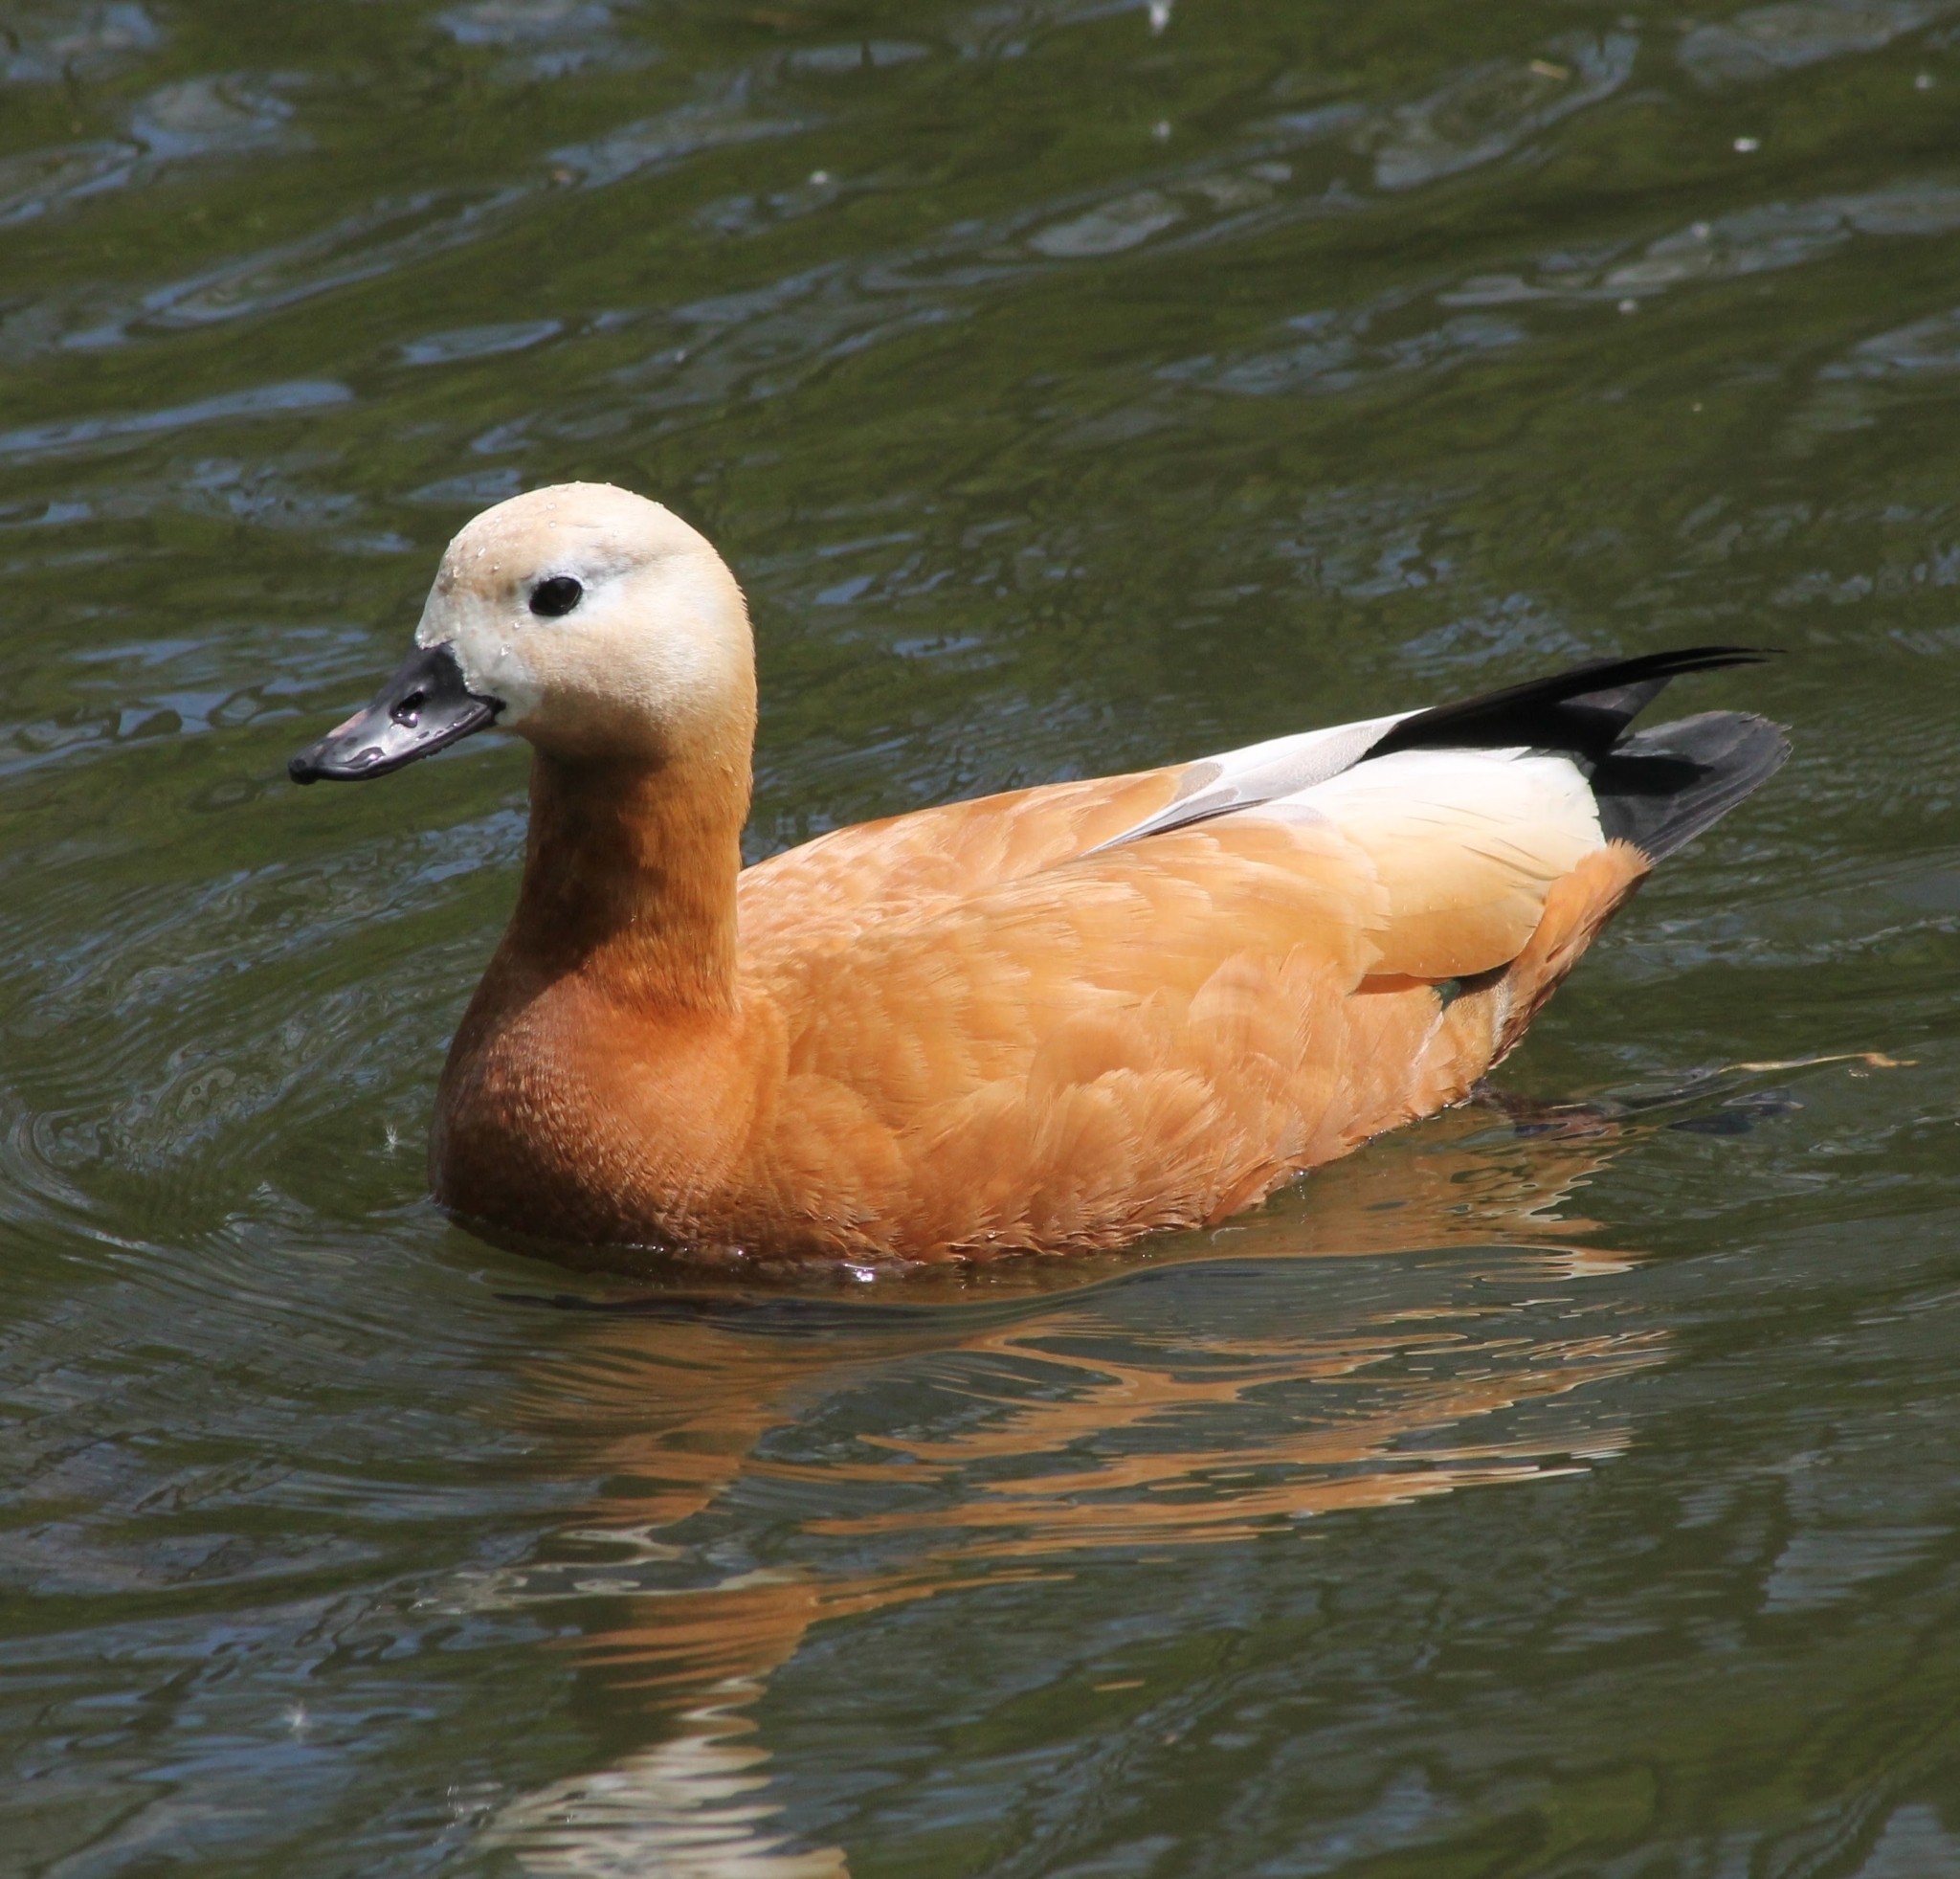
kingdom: Animalia
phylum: Chordata
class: Aves
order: Anseriformes
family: Anatidae
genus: Tadorna
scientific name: Tadorna ferruginea
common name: Ruddy shelduck
